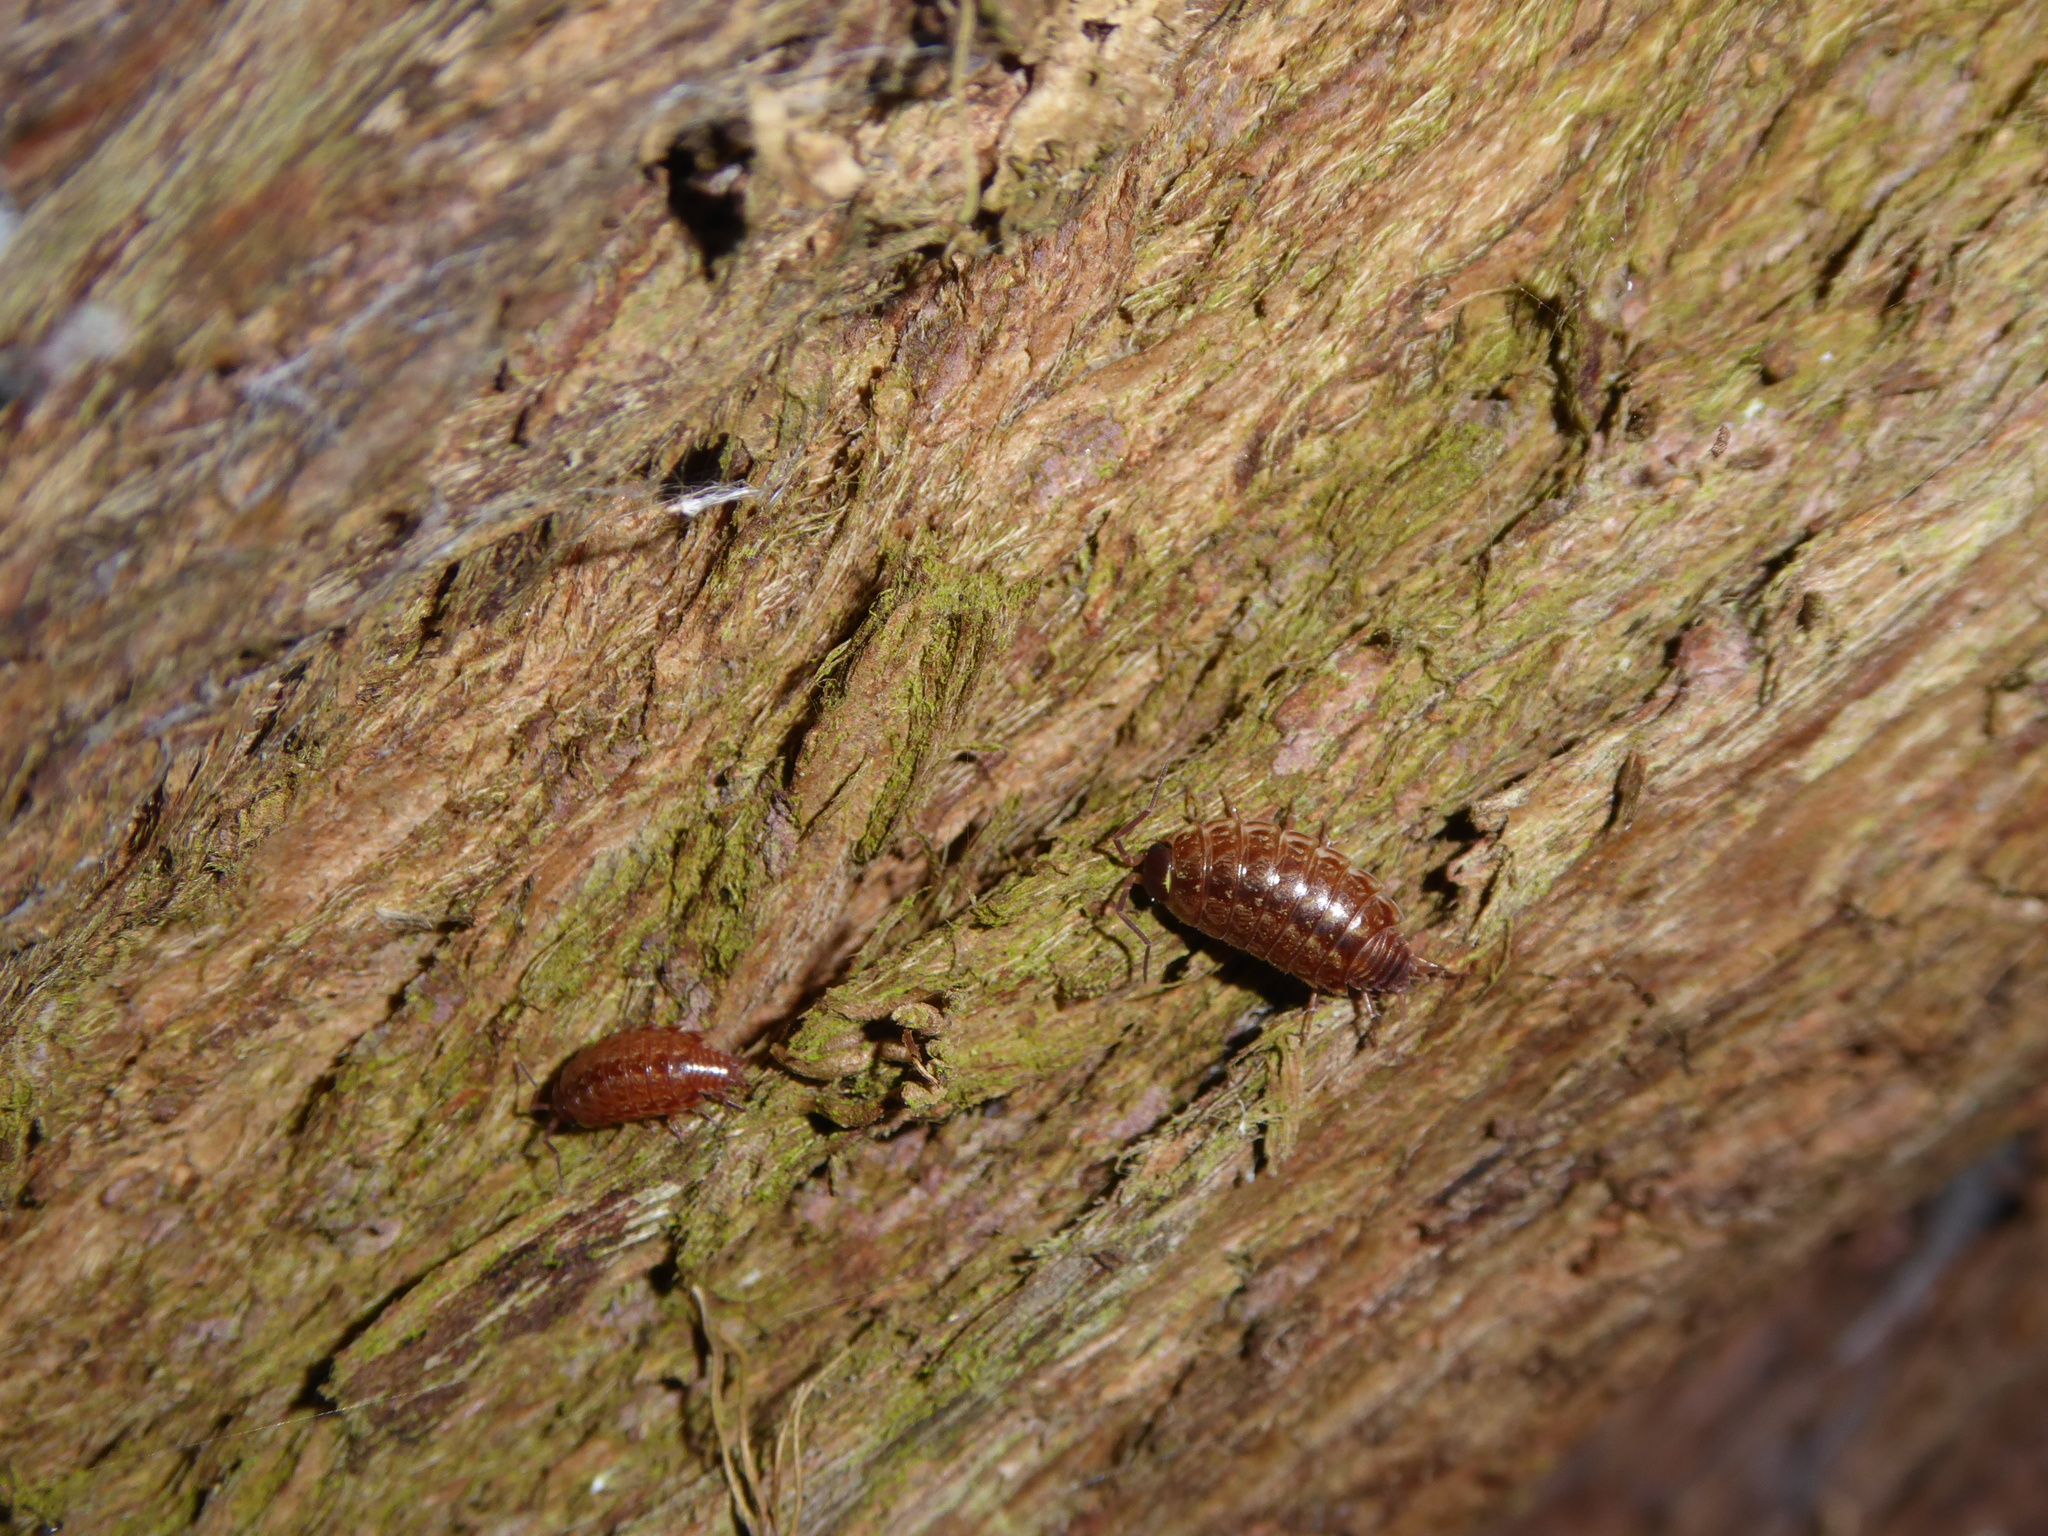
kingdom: Animalia
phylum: Arthropoda
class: Malacostraca
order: Isopoda
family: Philosciidae
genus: Philoscia
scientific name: Philoscia muscorum
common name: Common striped woodlouse
